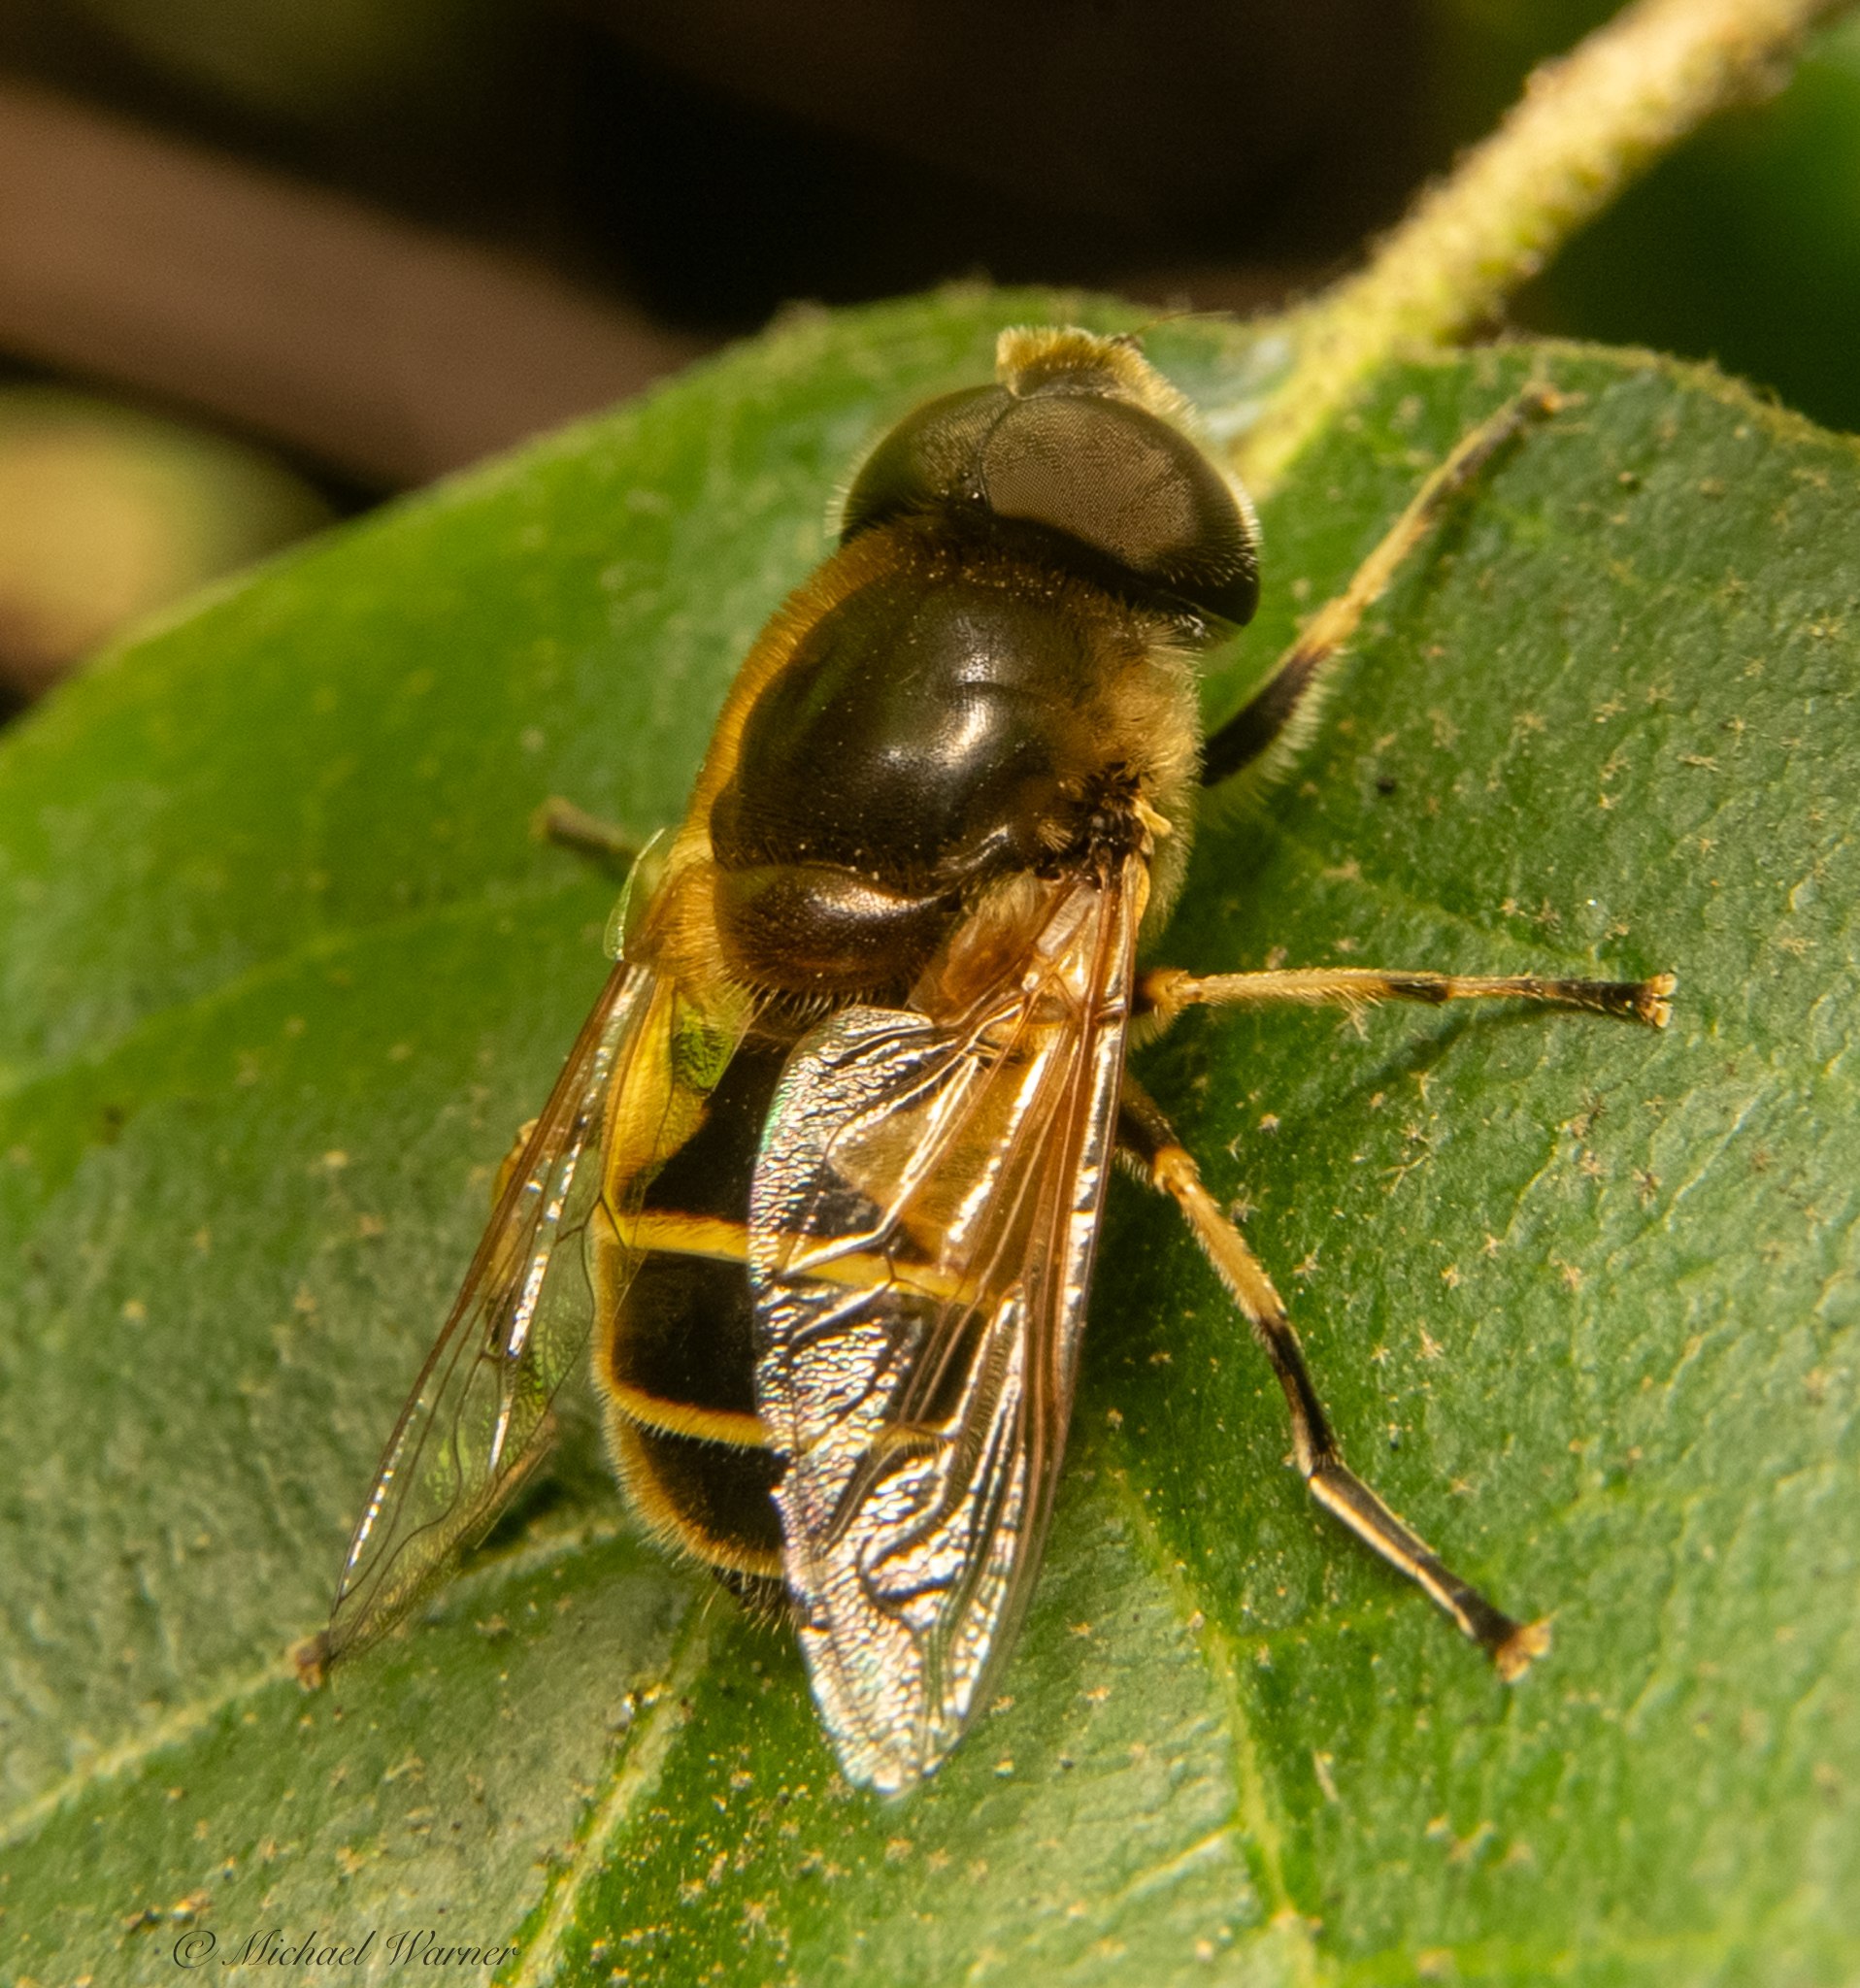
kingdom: Animalia
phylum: Arthropoda
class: Insecta
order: Diptera
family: Syrphidae
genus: Eristalis
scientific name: Eristalis hirta
